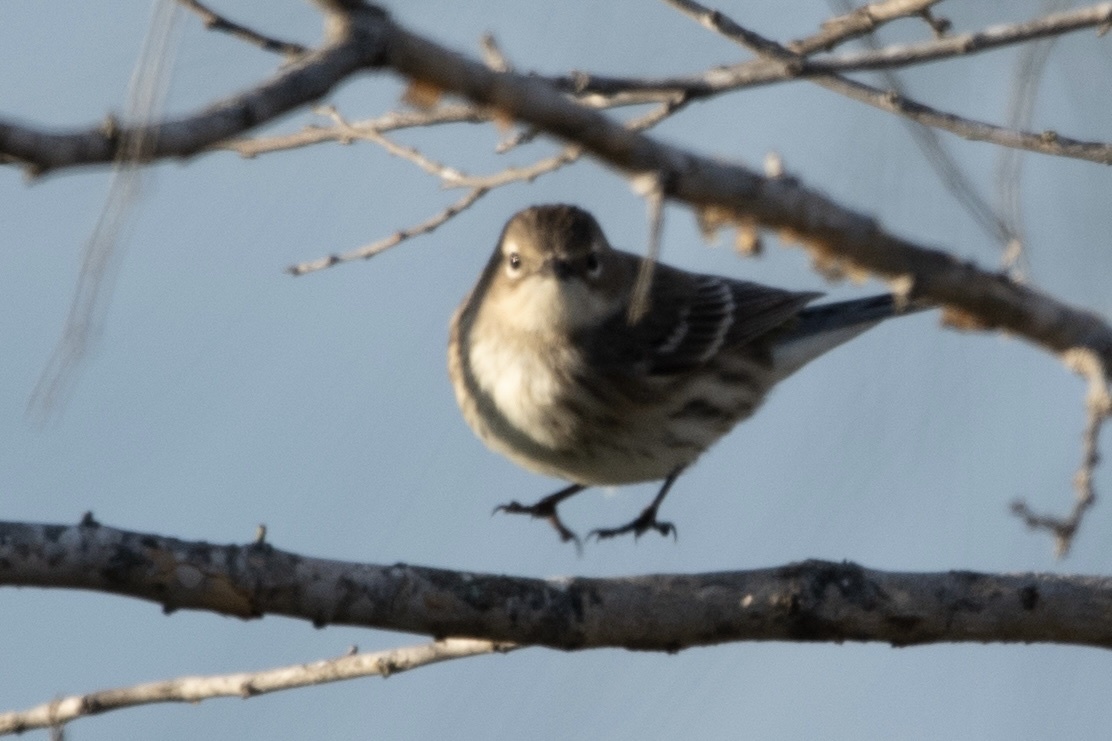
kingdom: Animalia
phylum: Chordata
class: Aves
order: Passeriformes
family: Parulidae
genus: Setophaga
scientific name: Setophaga coronata
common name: Myrtle warbler
